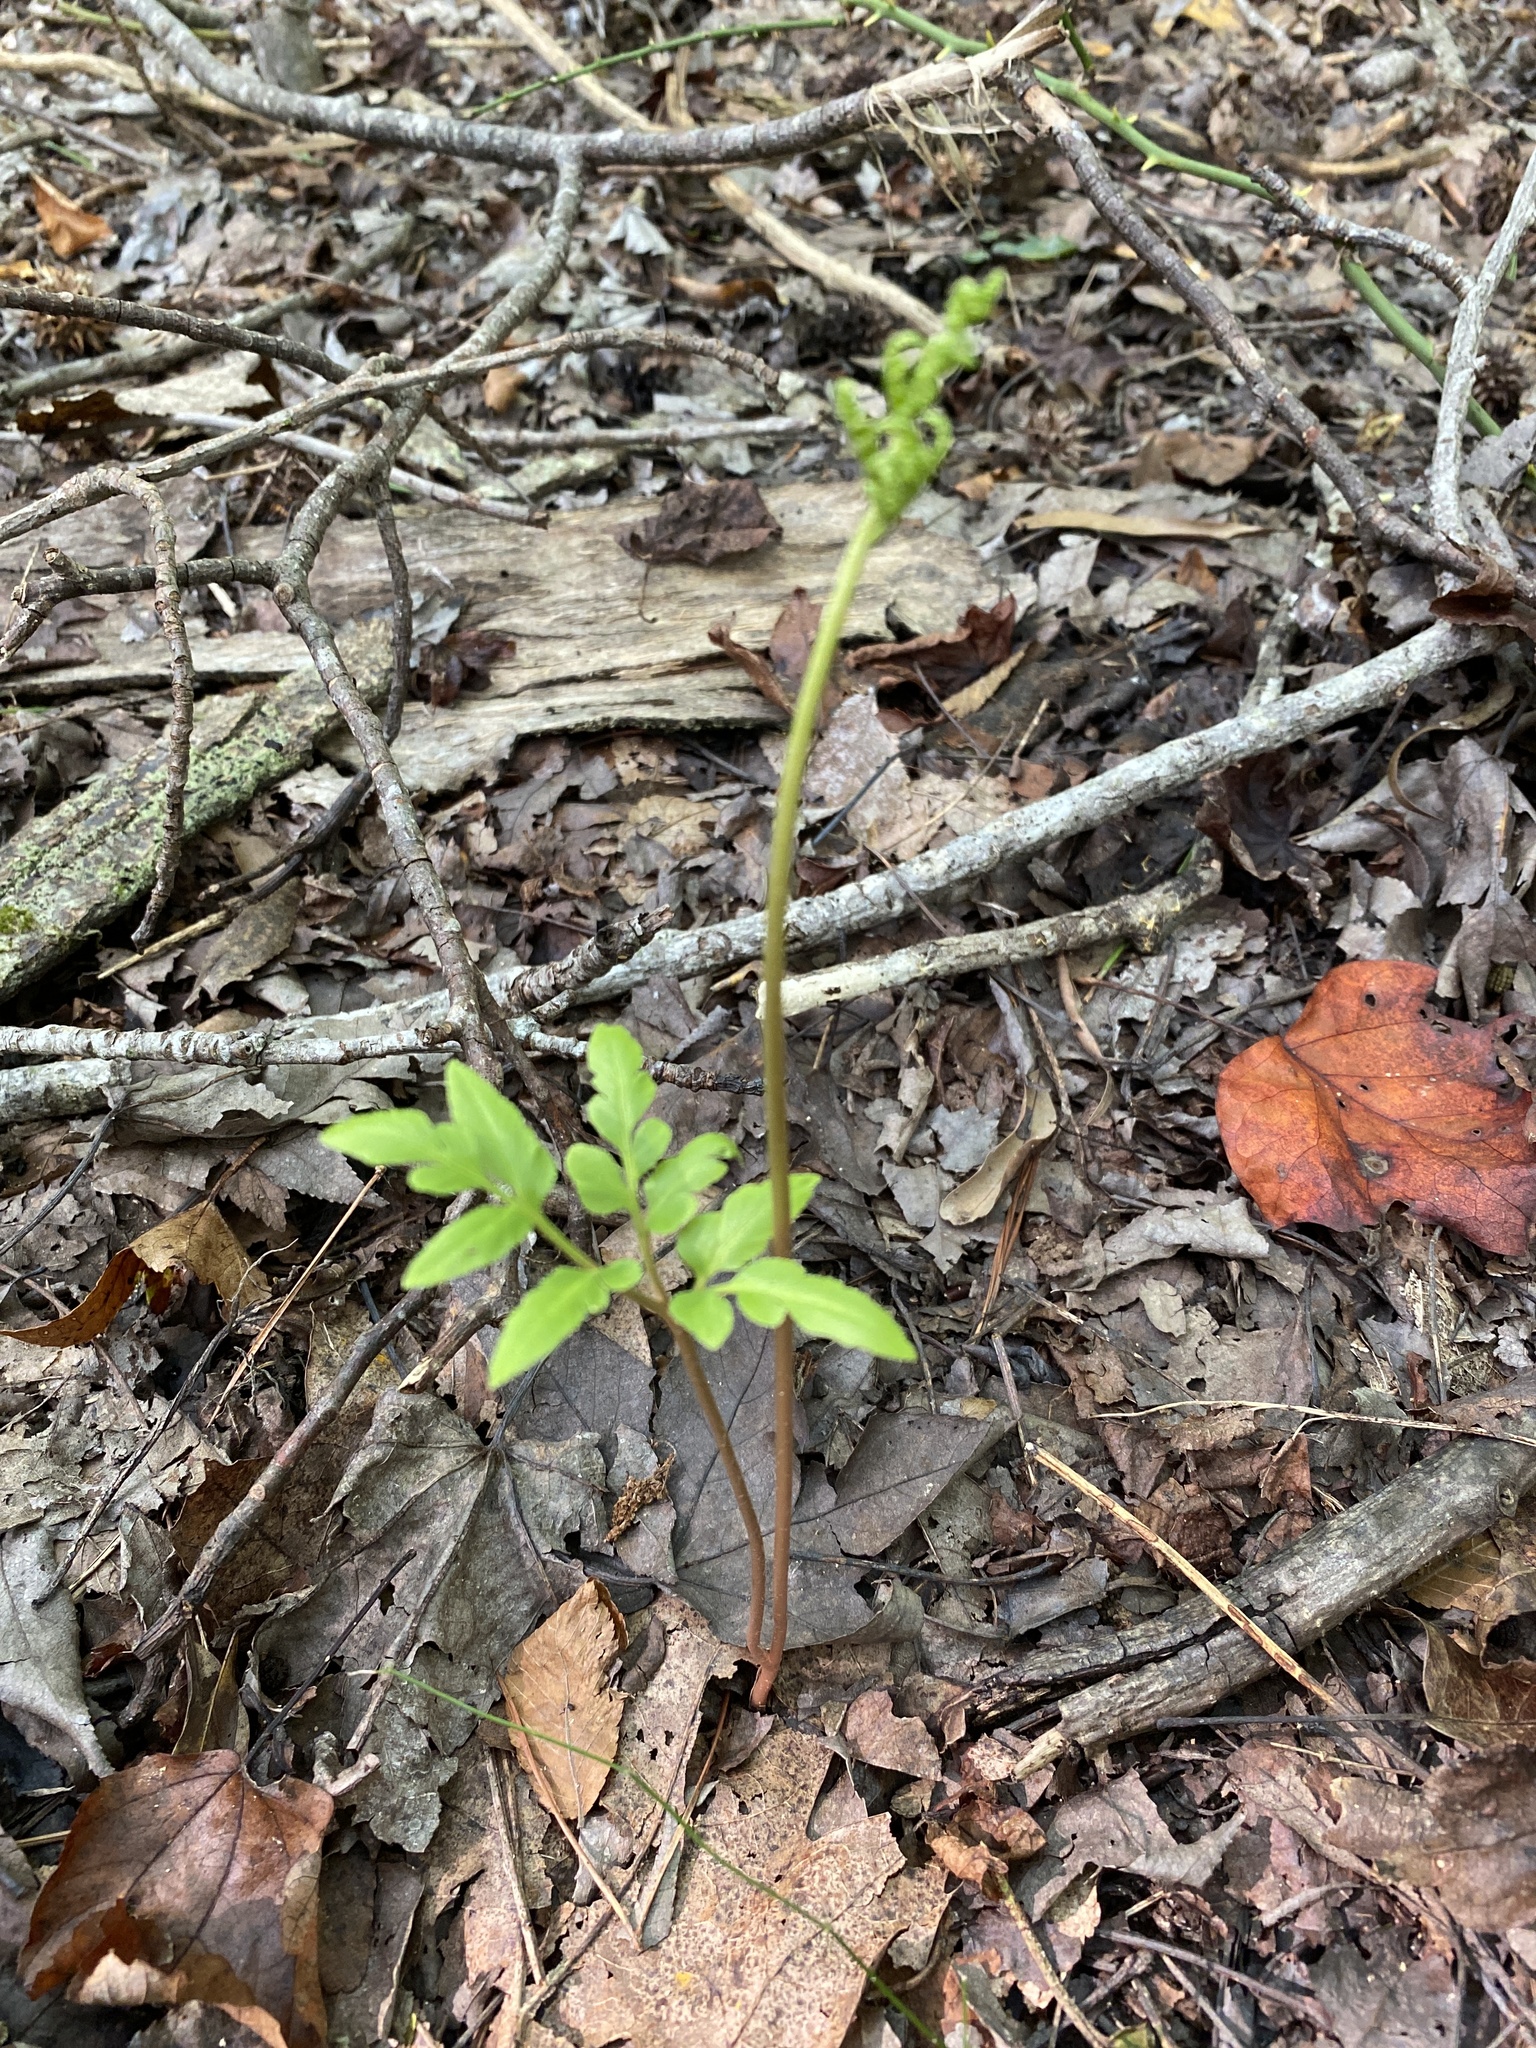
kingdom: Plantae
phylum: Tracheophyta
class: Polypodiopsida
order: Ophioglossales
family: Ophioglossaceae
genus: Sceptridium
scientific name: Sceptridium dissectum
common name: Cut-leaved grapefern
